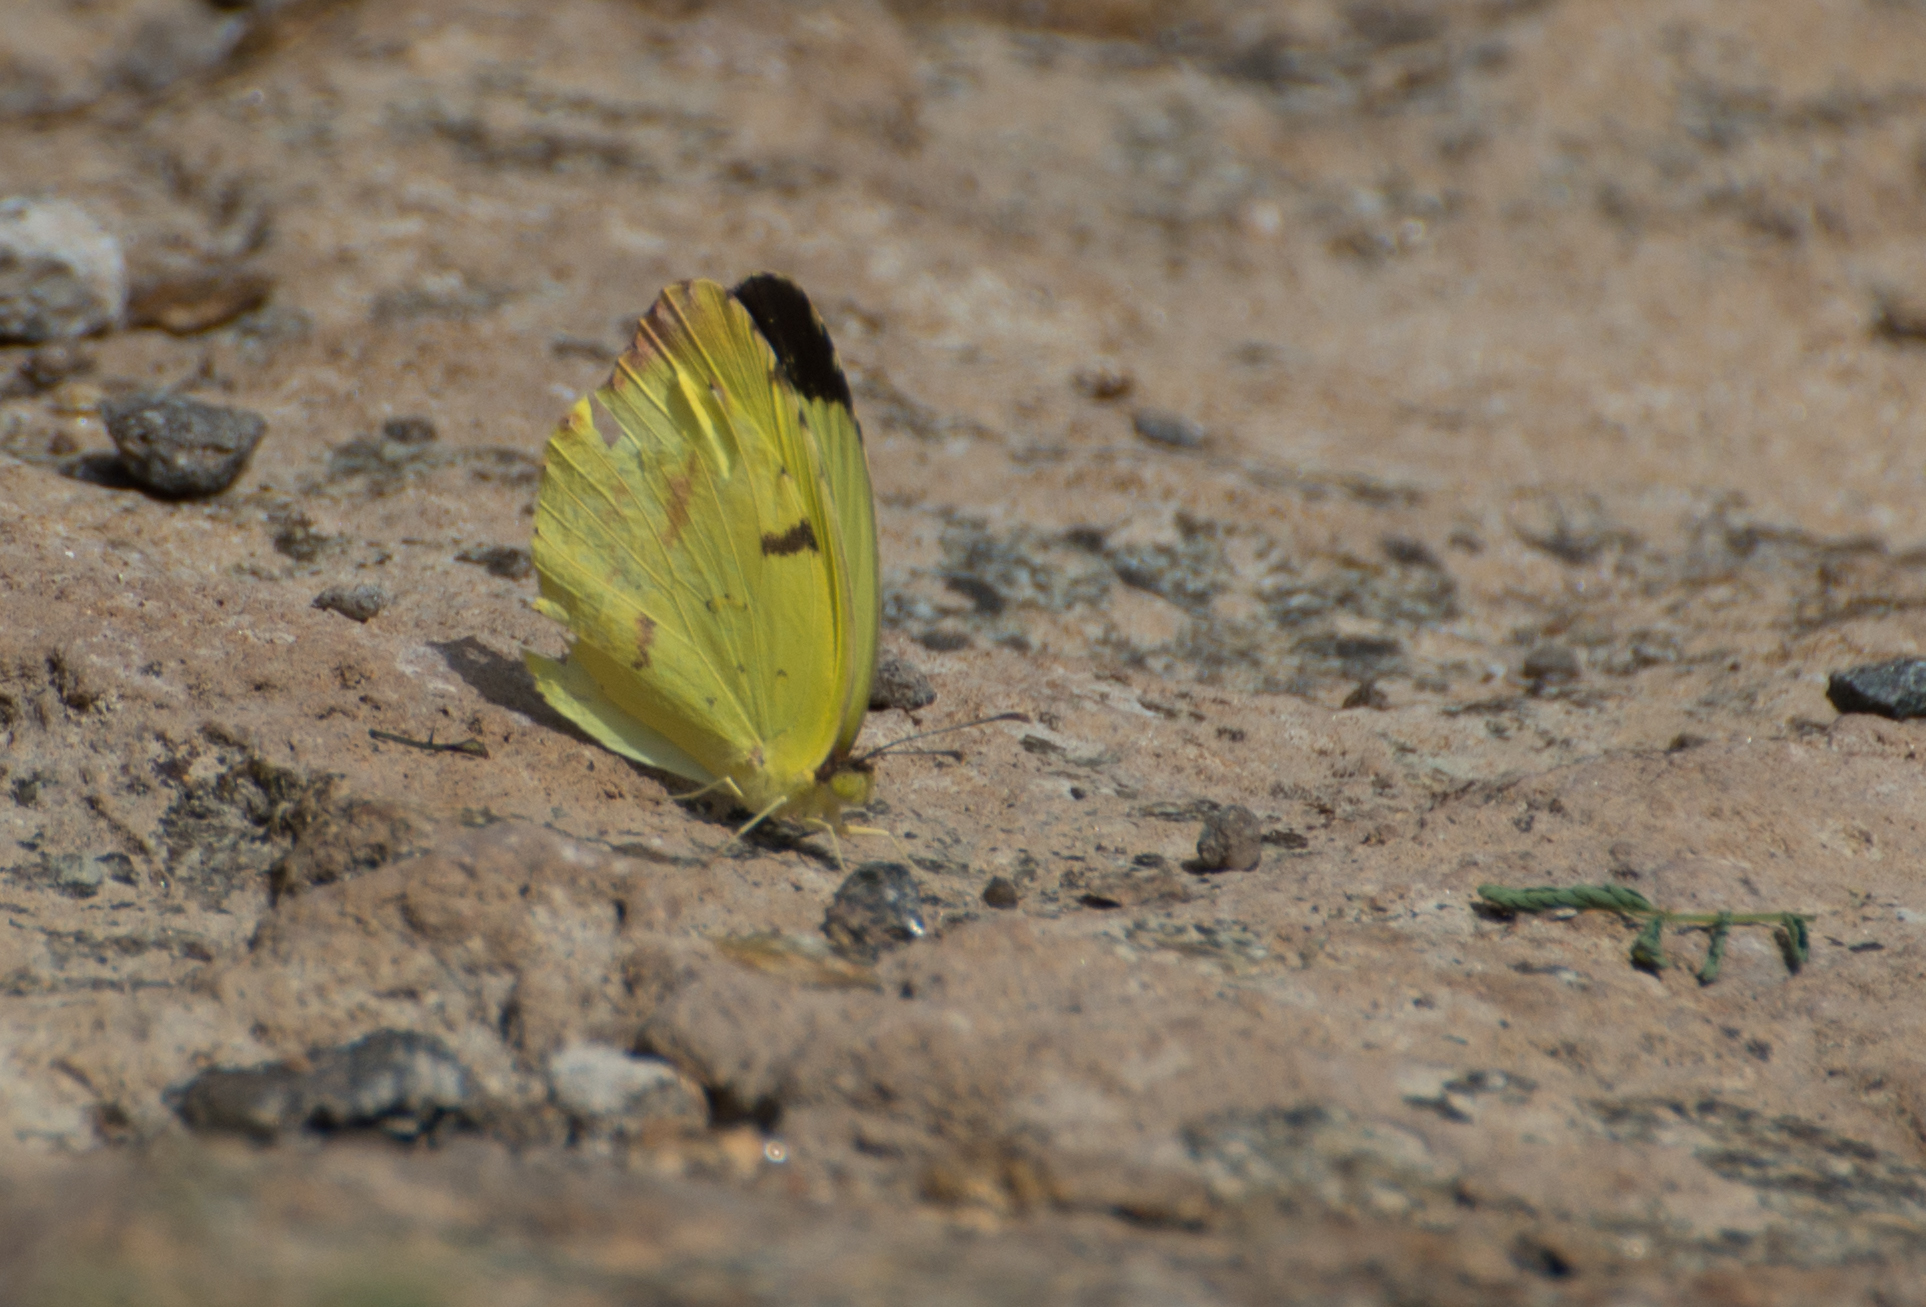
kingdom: Animalia
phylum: Arthropoda
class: Insecta
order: Lepidoptera
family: Pieridae
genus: Teriocolias
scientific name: Teriocolias
